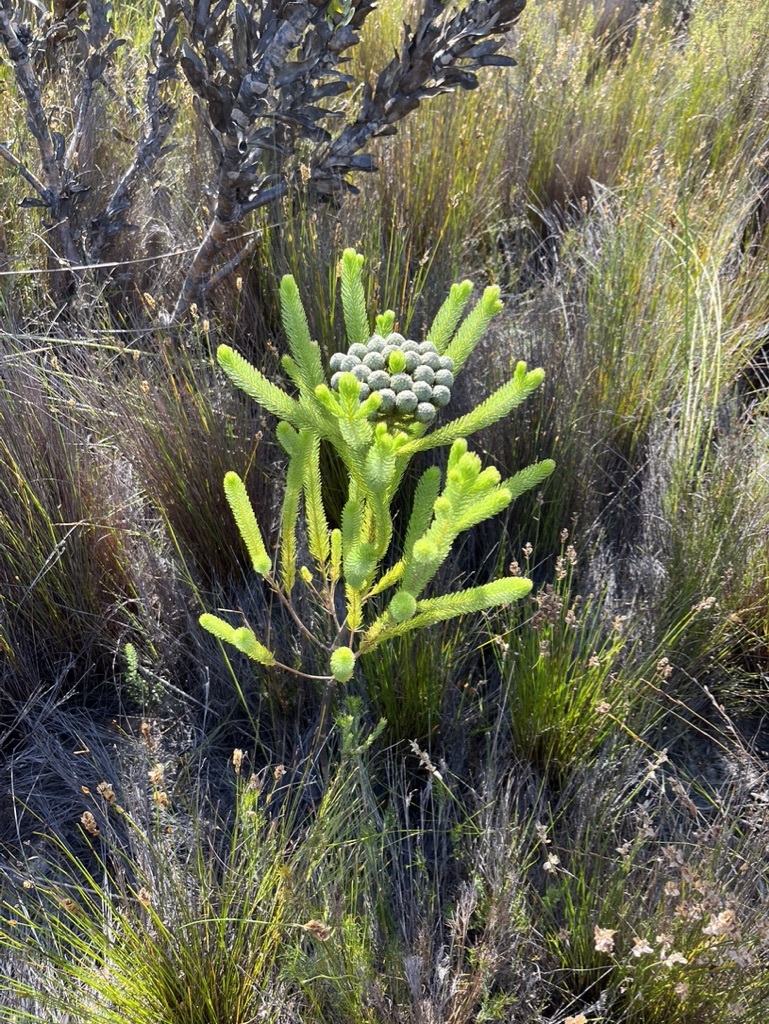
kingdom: Plantae
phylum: Tracheophyta
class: Magnoliopsida
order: Bruniales
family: Bruniaceae
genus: Berzelia
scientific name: Berzelia albiflora
